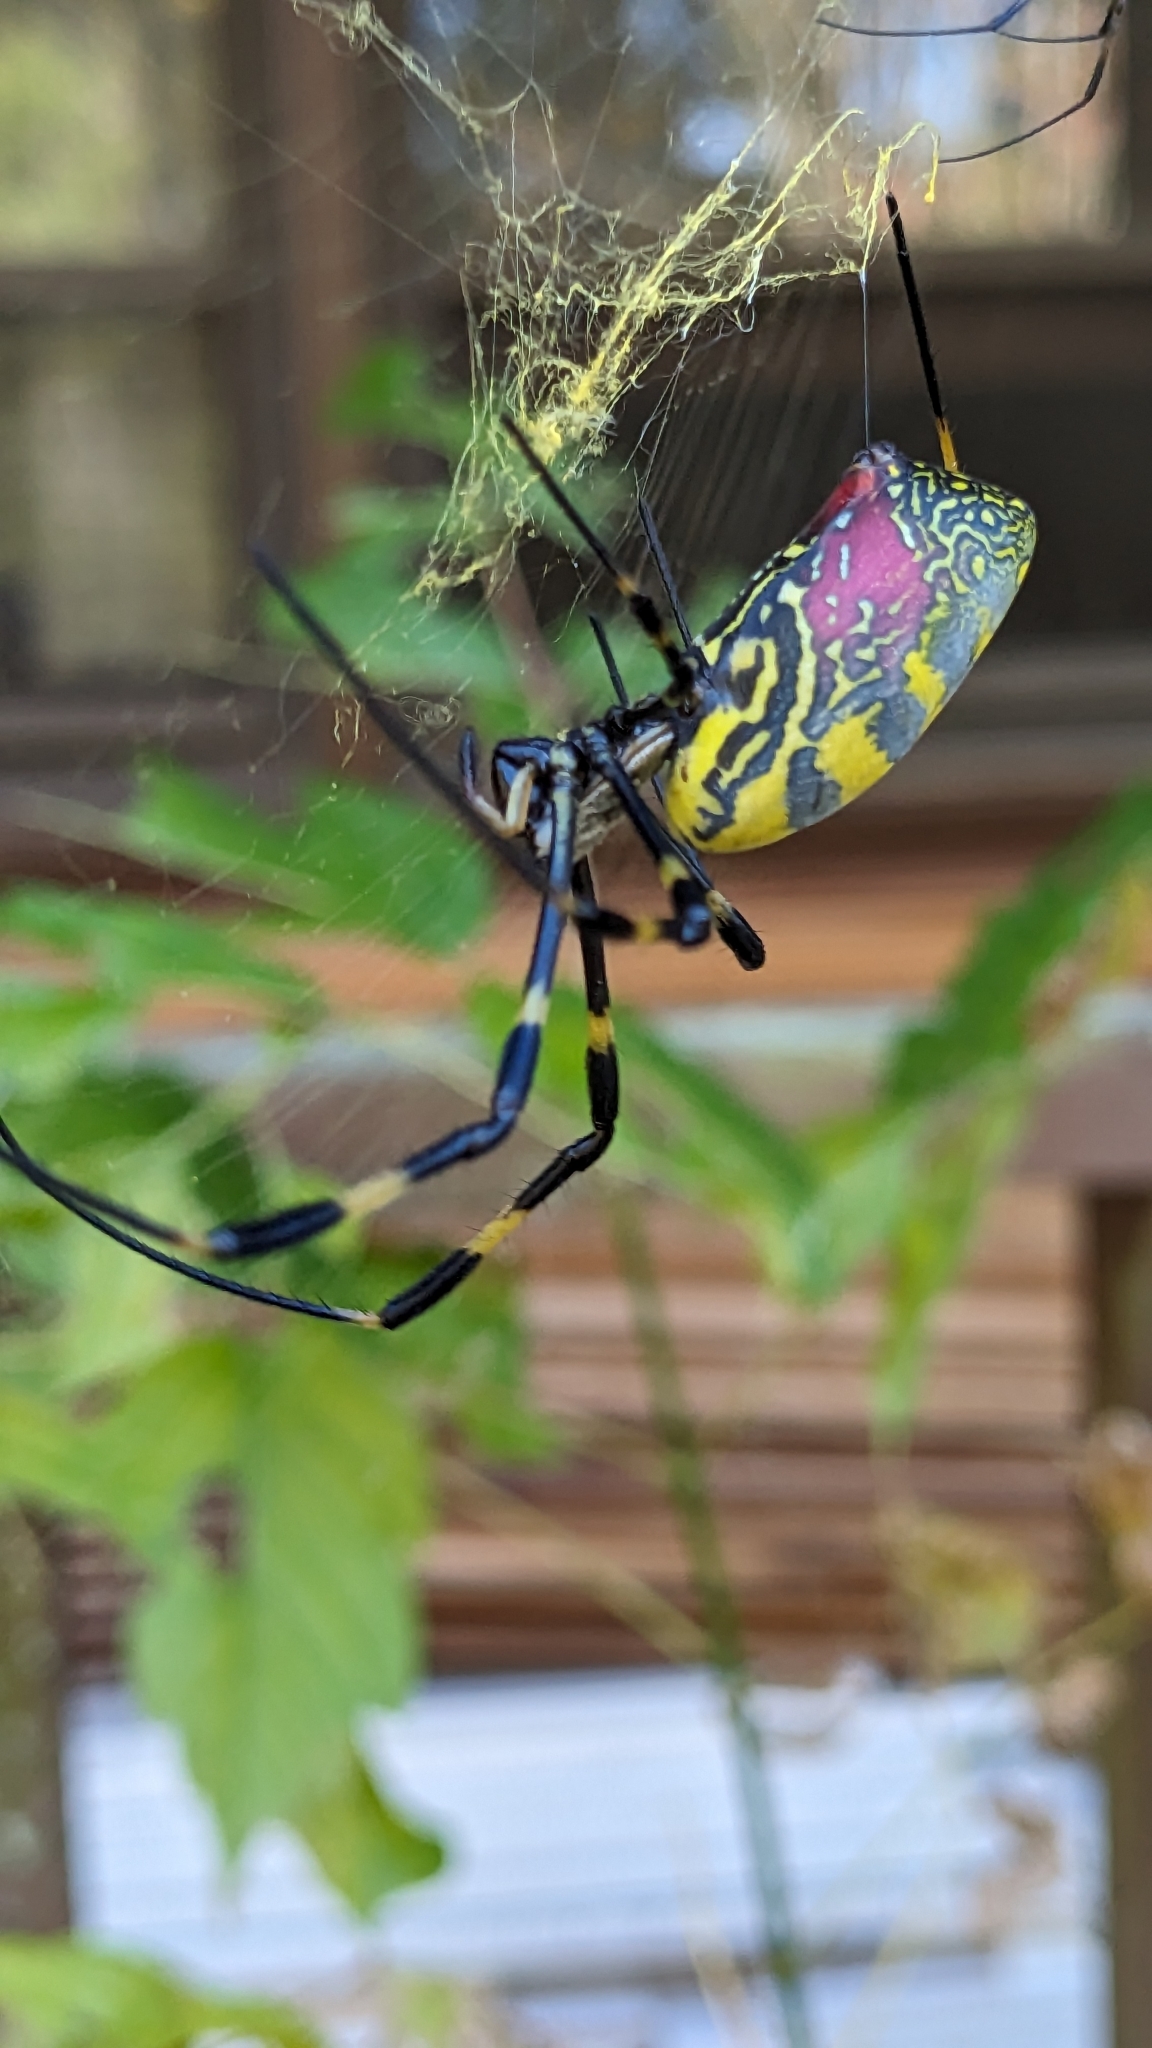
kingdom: Animalia
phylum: Arthropoda
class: Arachnida
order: Araneae
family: Araneidae
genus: Trichonephila
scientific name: Trichonephila clavata
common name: Jorō spider
